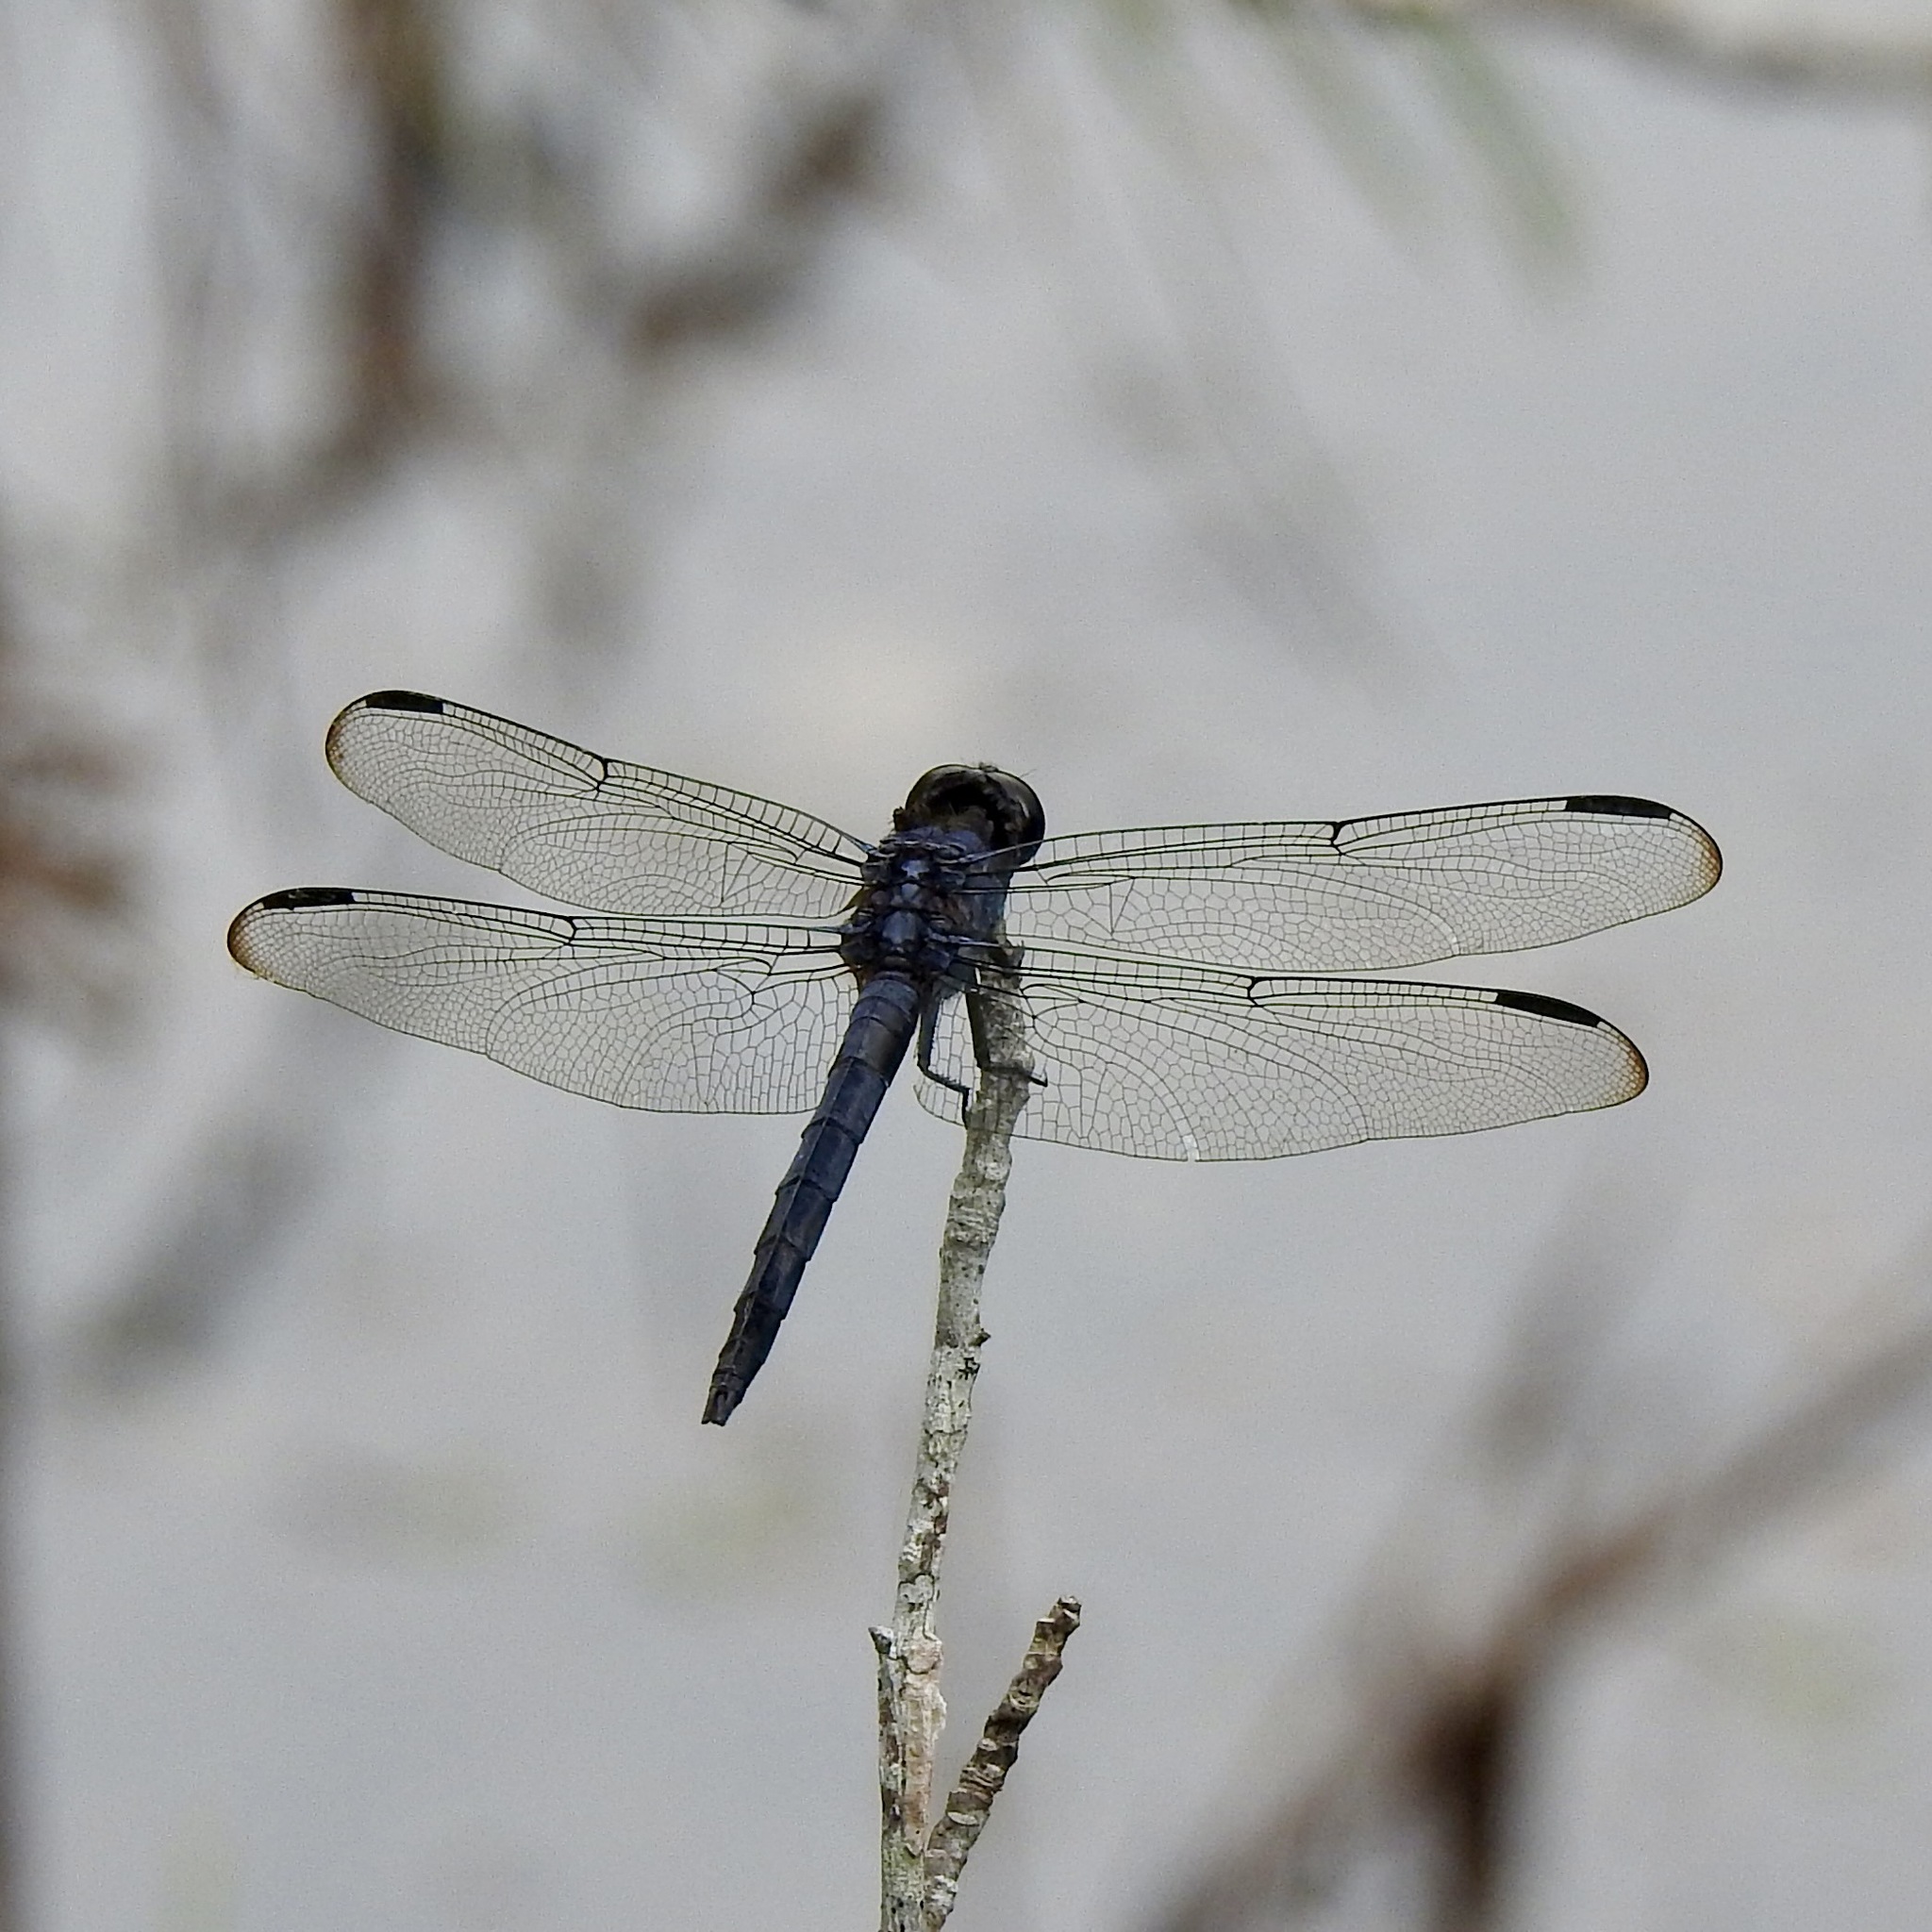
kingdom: Animalia
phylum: Arthropoda
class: Insecta
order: Odonata
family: Libellulidae
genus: Libellula
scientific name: Libellula incesta
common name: Slaty skimmer
